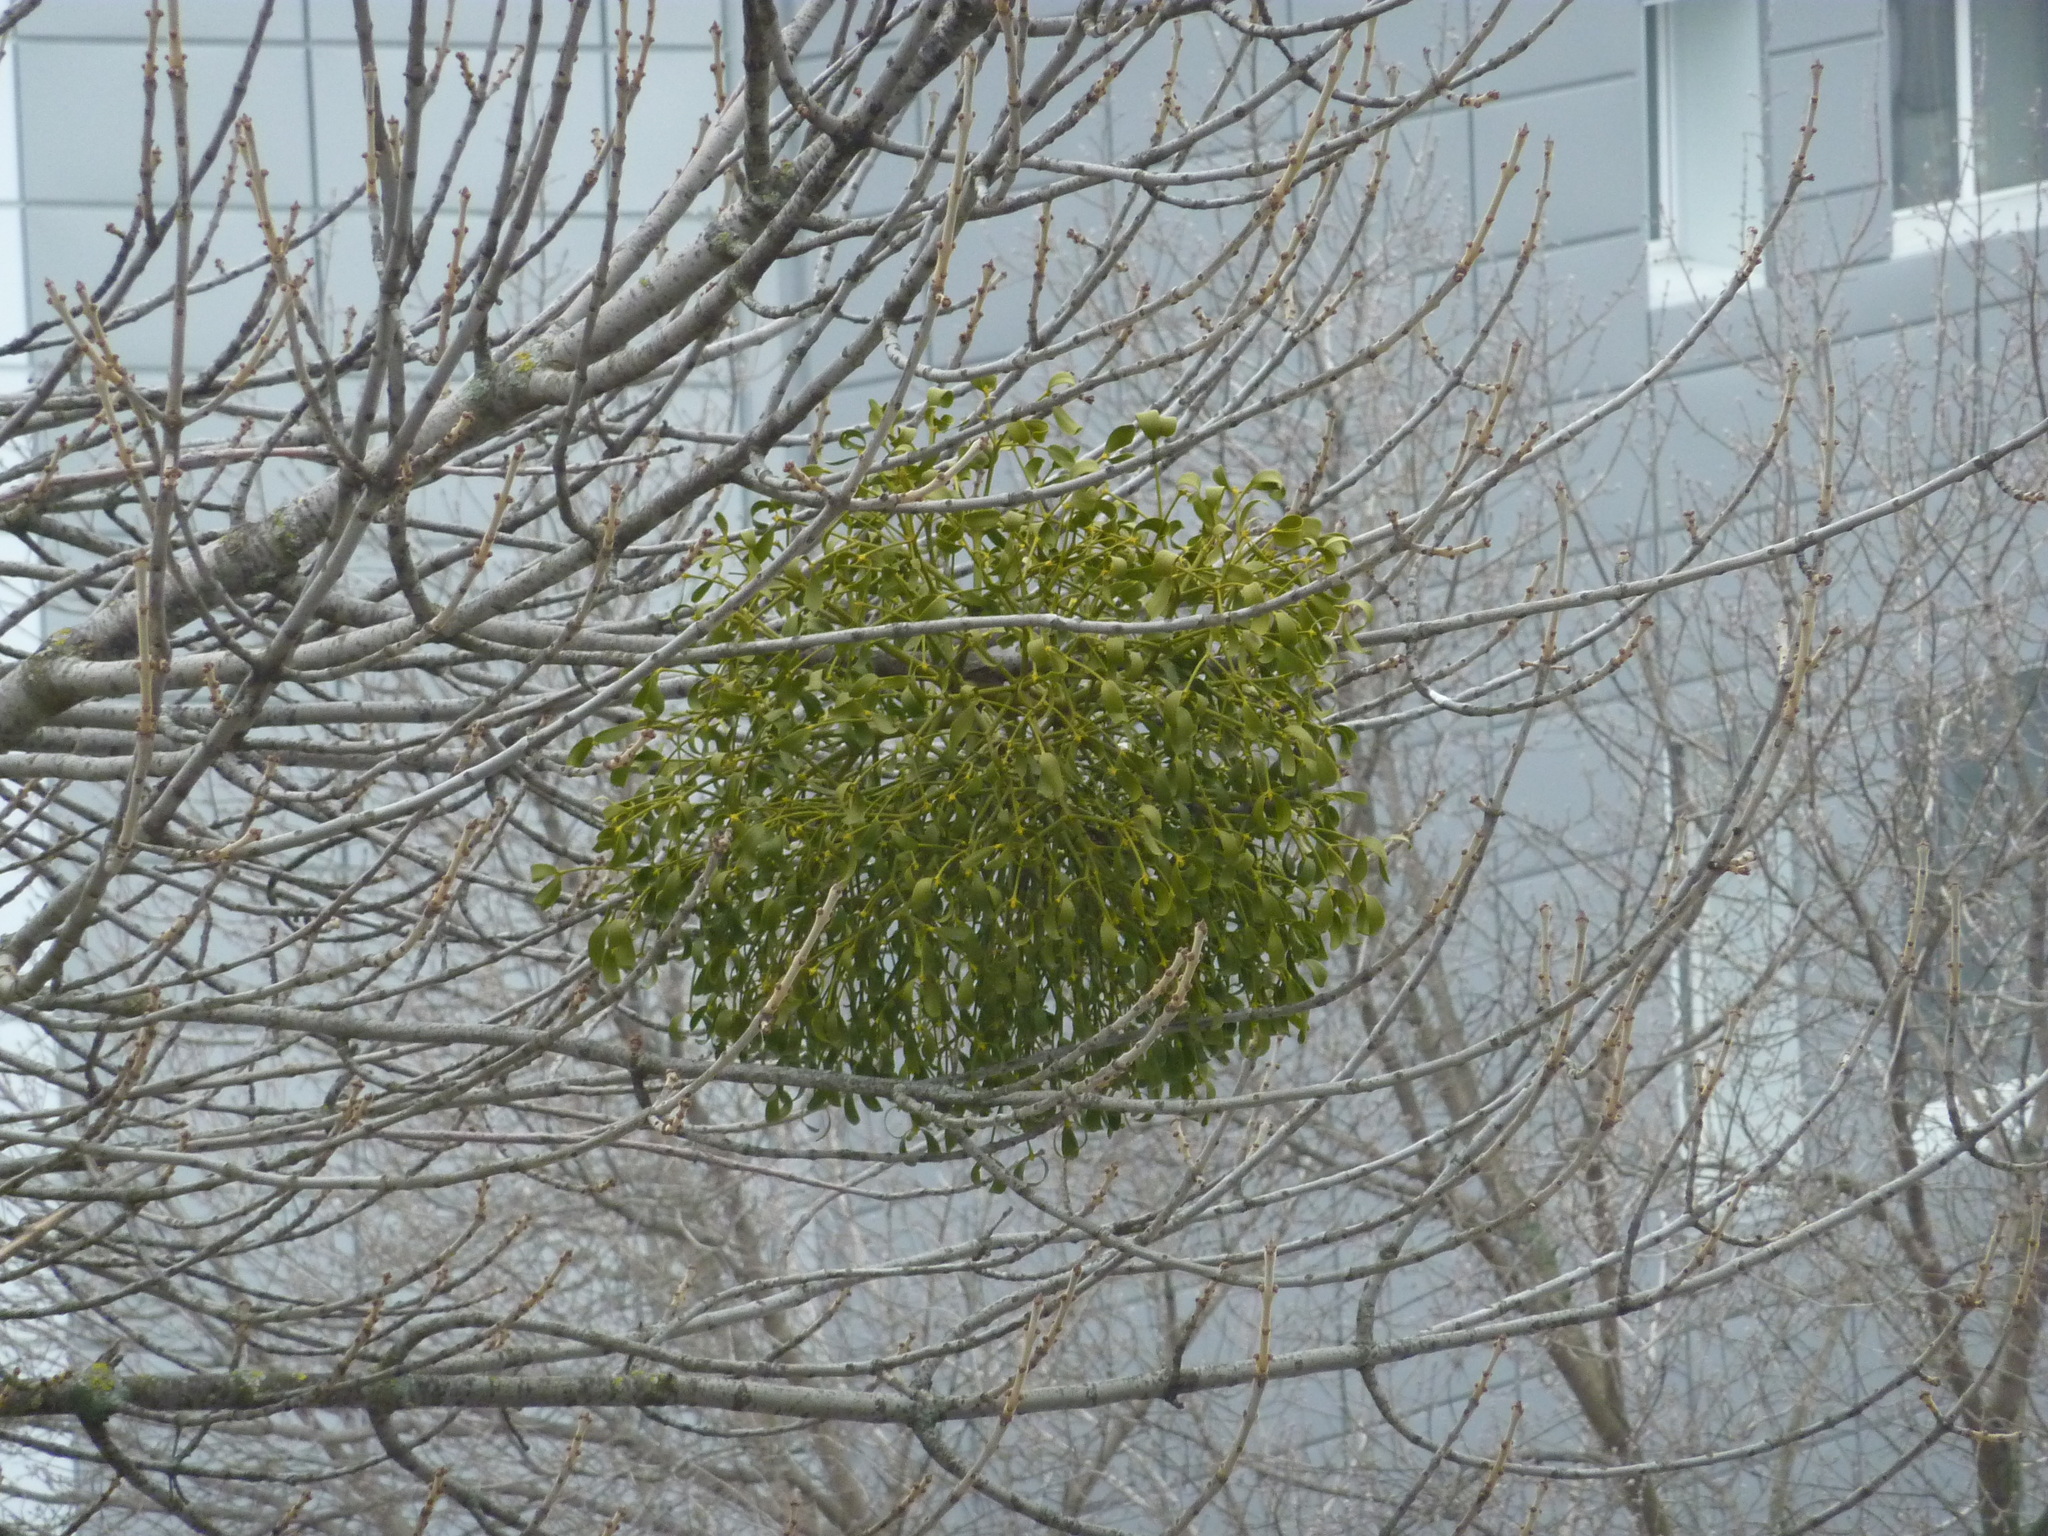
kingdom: Plantae
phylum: Tracheophyta
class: Magnoliopsida
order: Santalales
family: Viscaceae
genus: Viscum
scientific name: Viscum album
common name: Mistletoe
